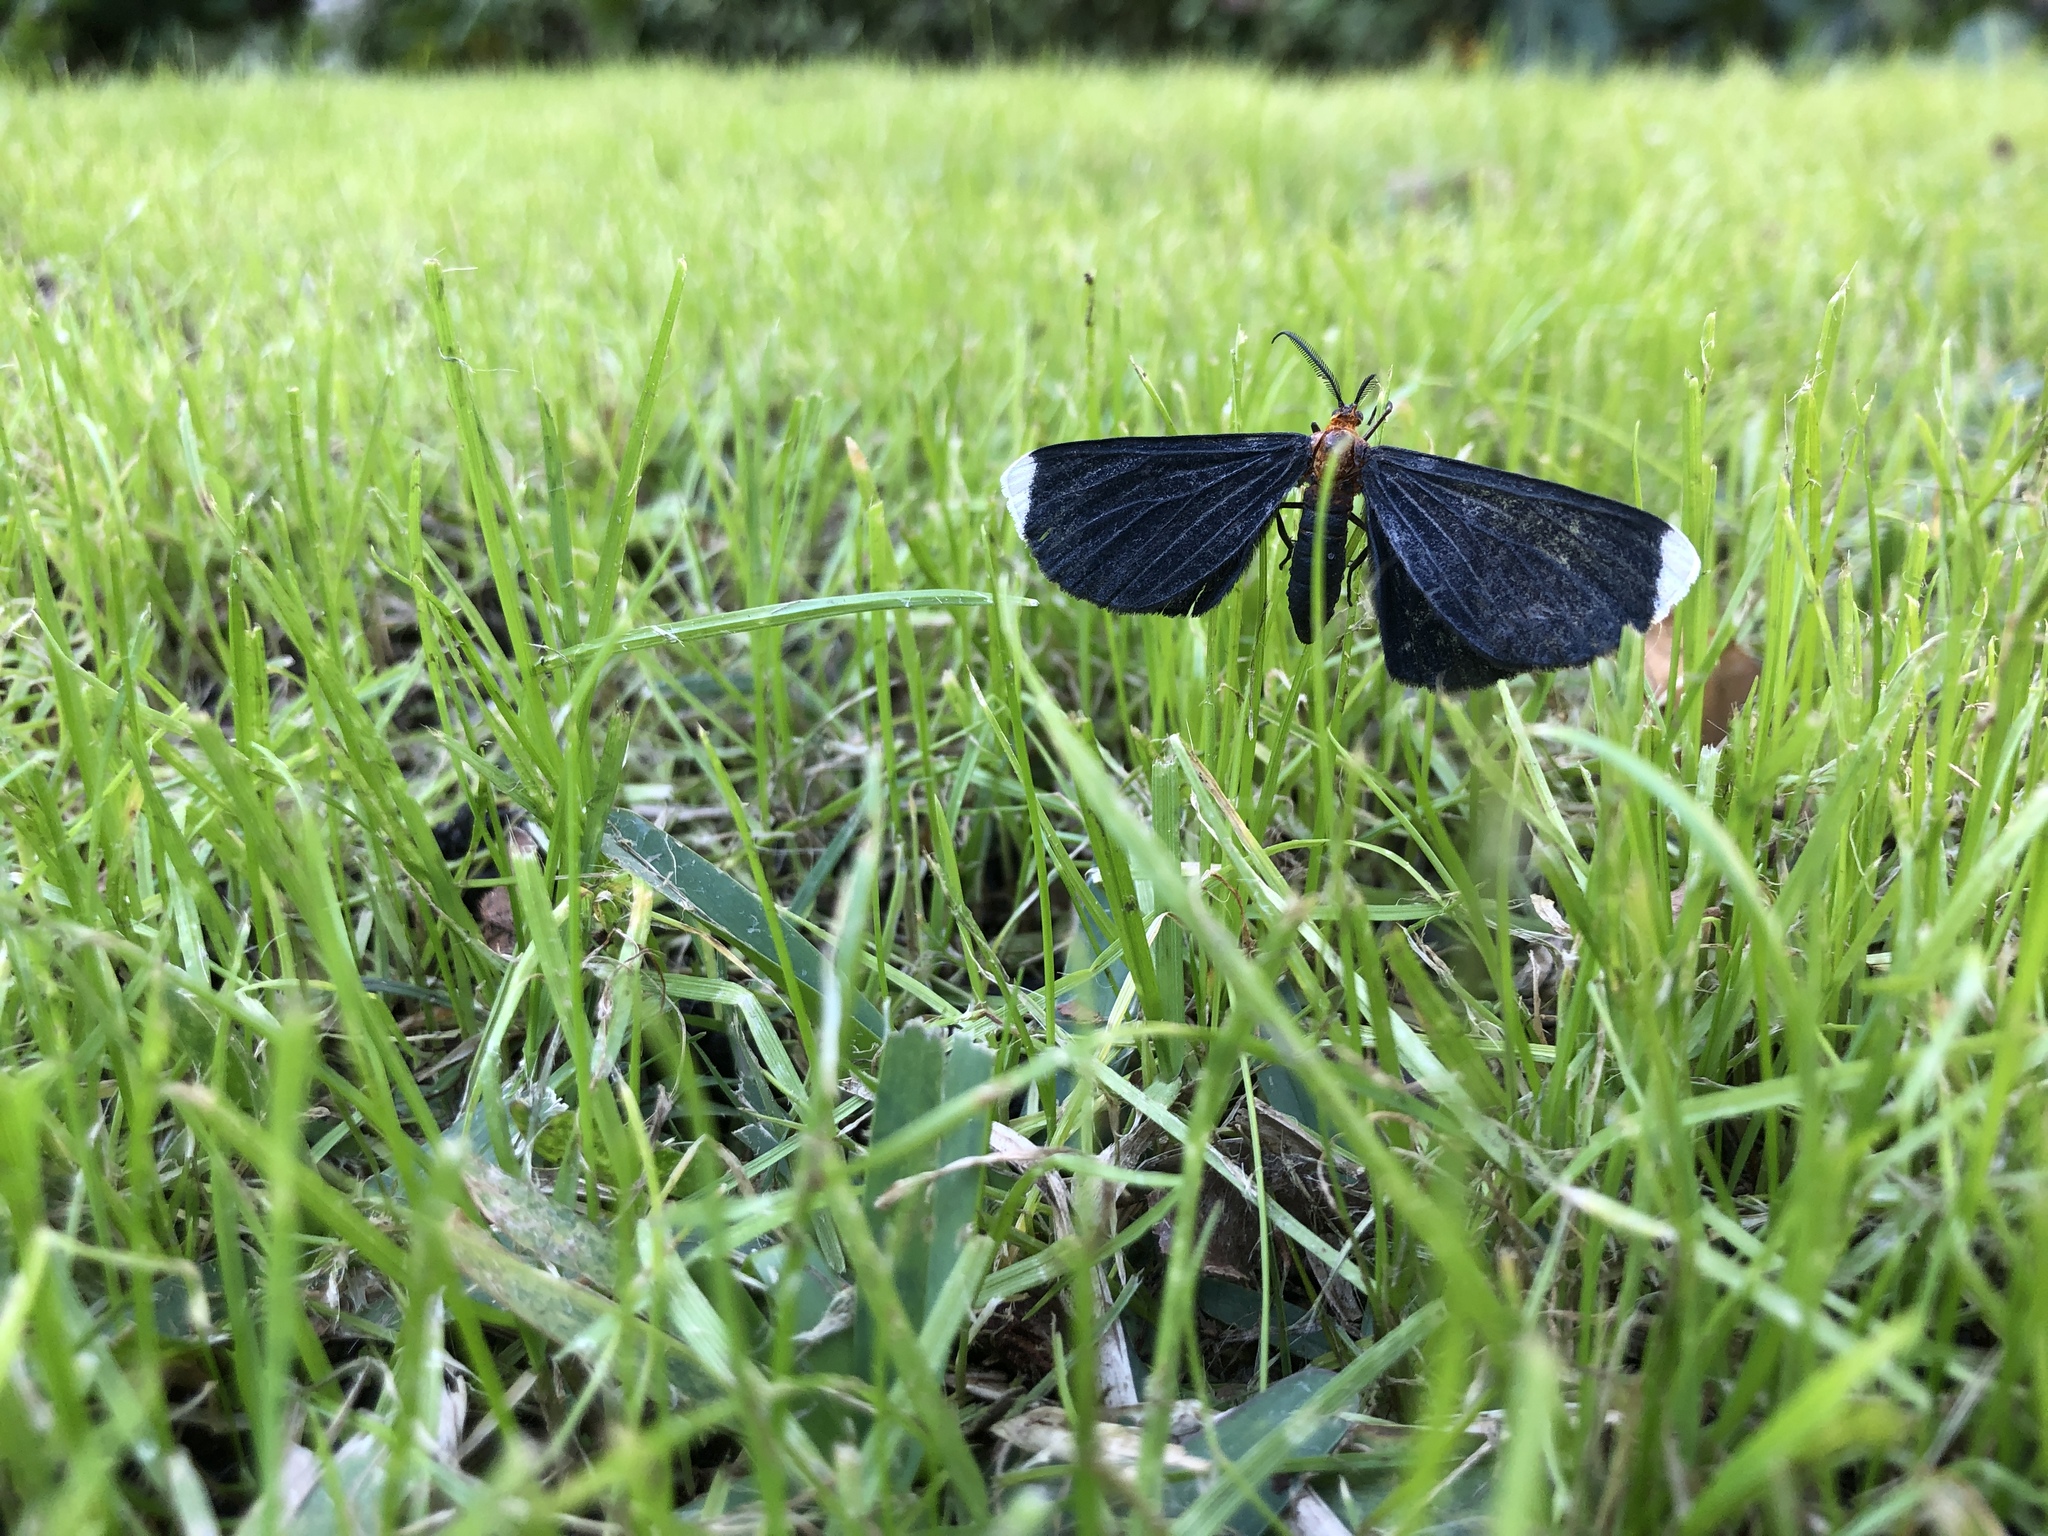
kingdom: Animalia
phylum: Arthropoda
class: Insecta
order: Lepidoptera
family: Geometridae
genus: Melanchroia
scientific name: Melanchroia chephise
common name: White-tipped black
